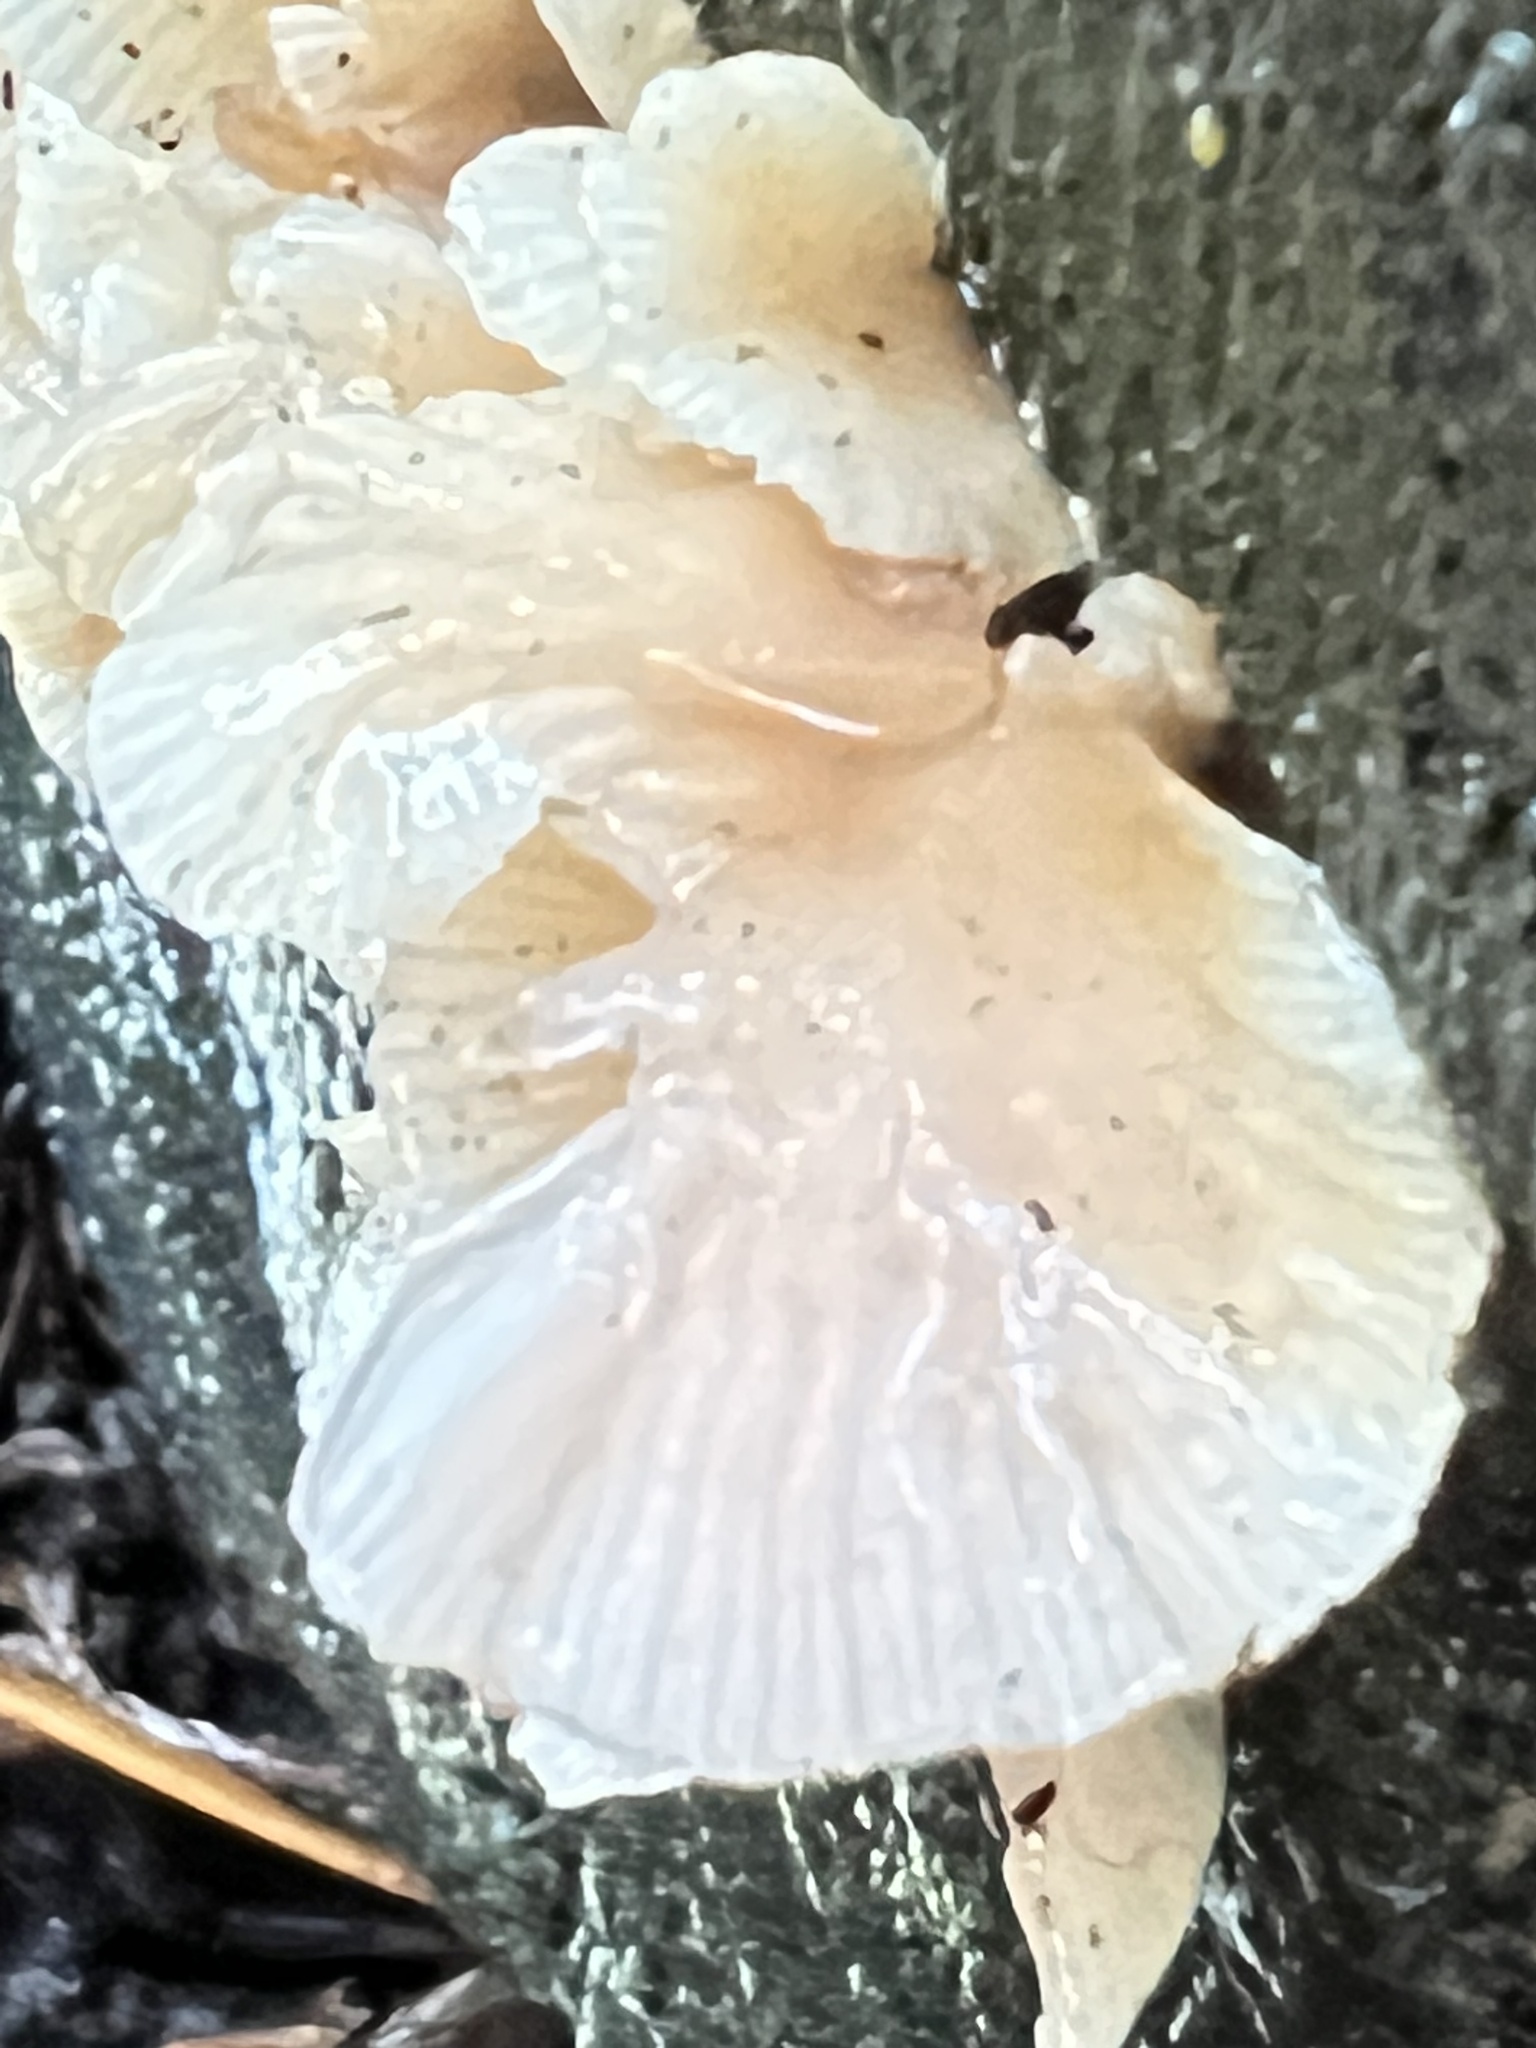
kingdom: Fungi
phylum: Basidiomycota
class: Agaricomycetes
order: Agaricales
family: Mycenaceae
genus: Panellus
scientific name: Panellus longinquus
